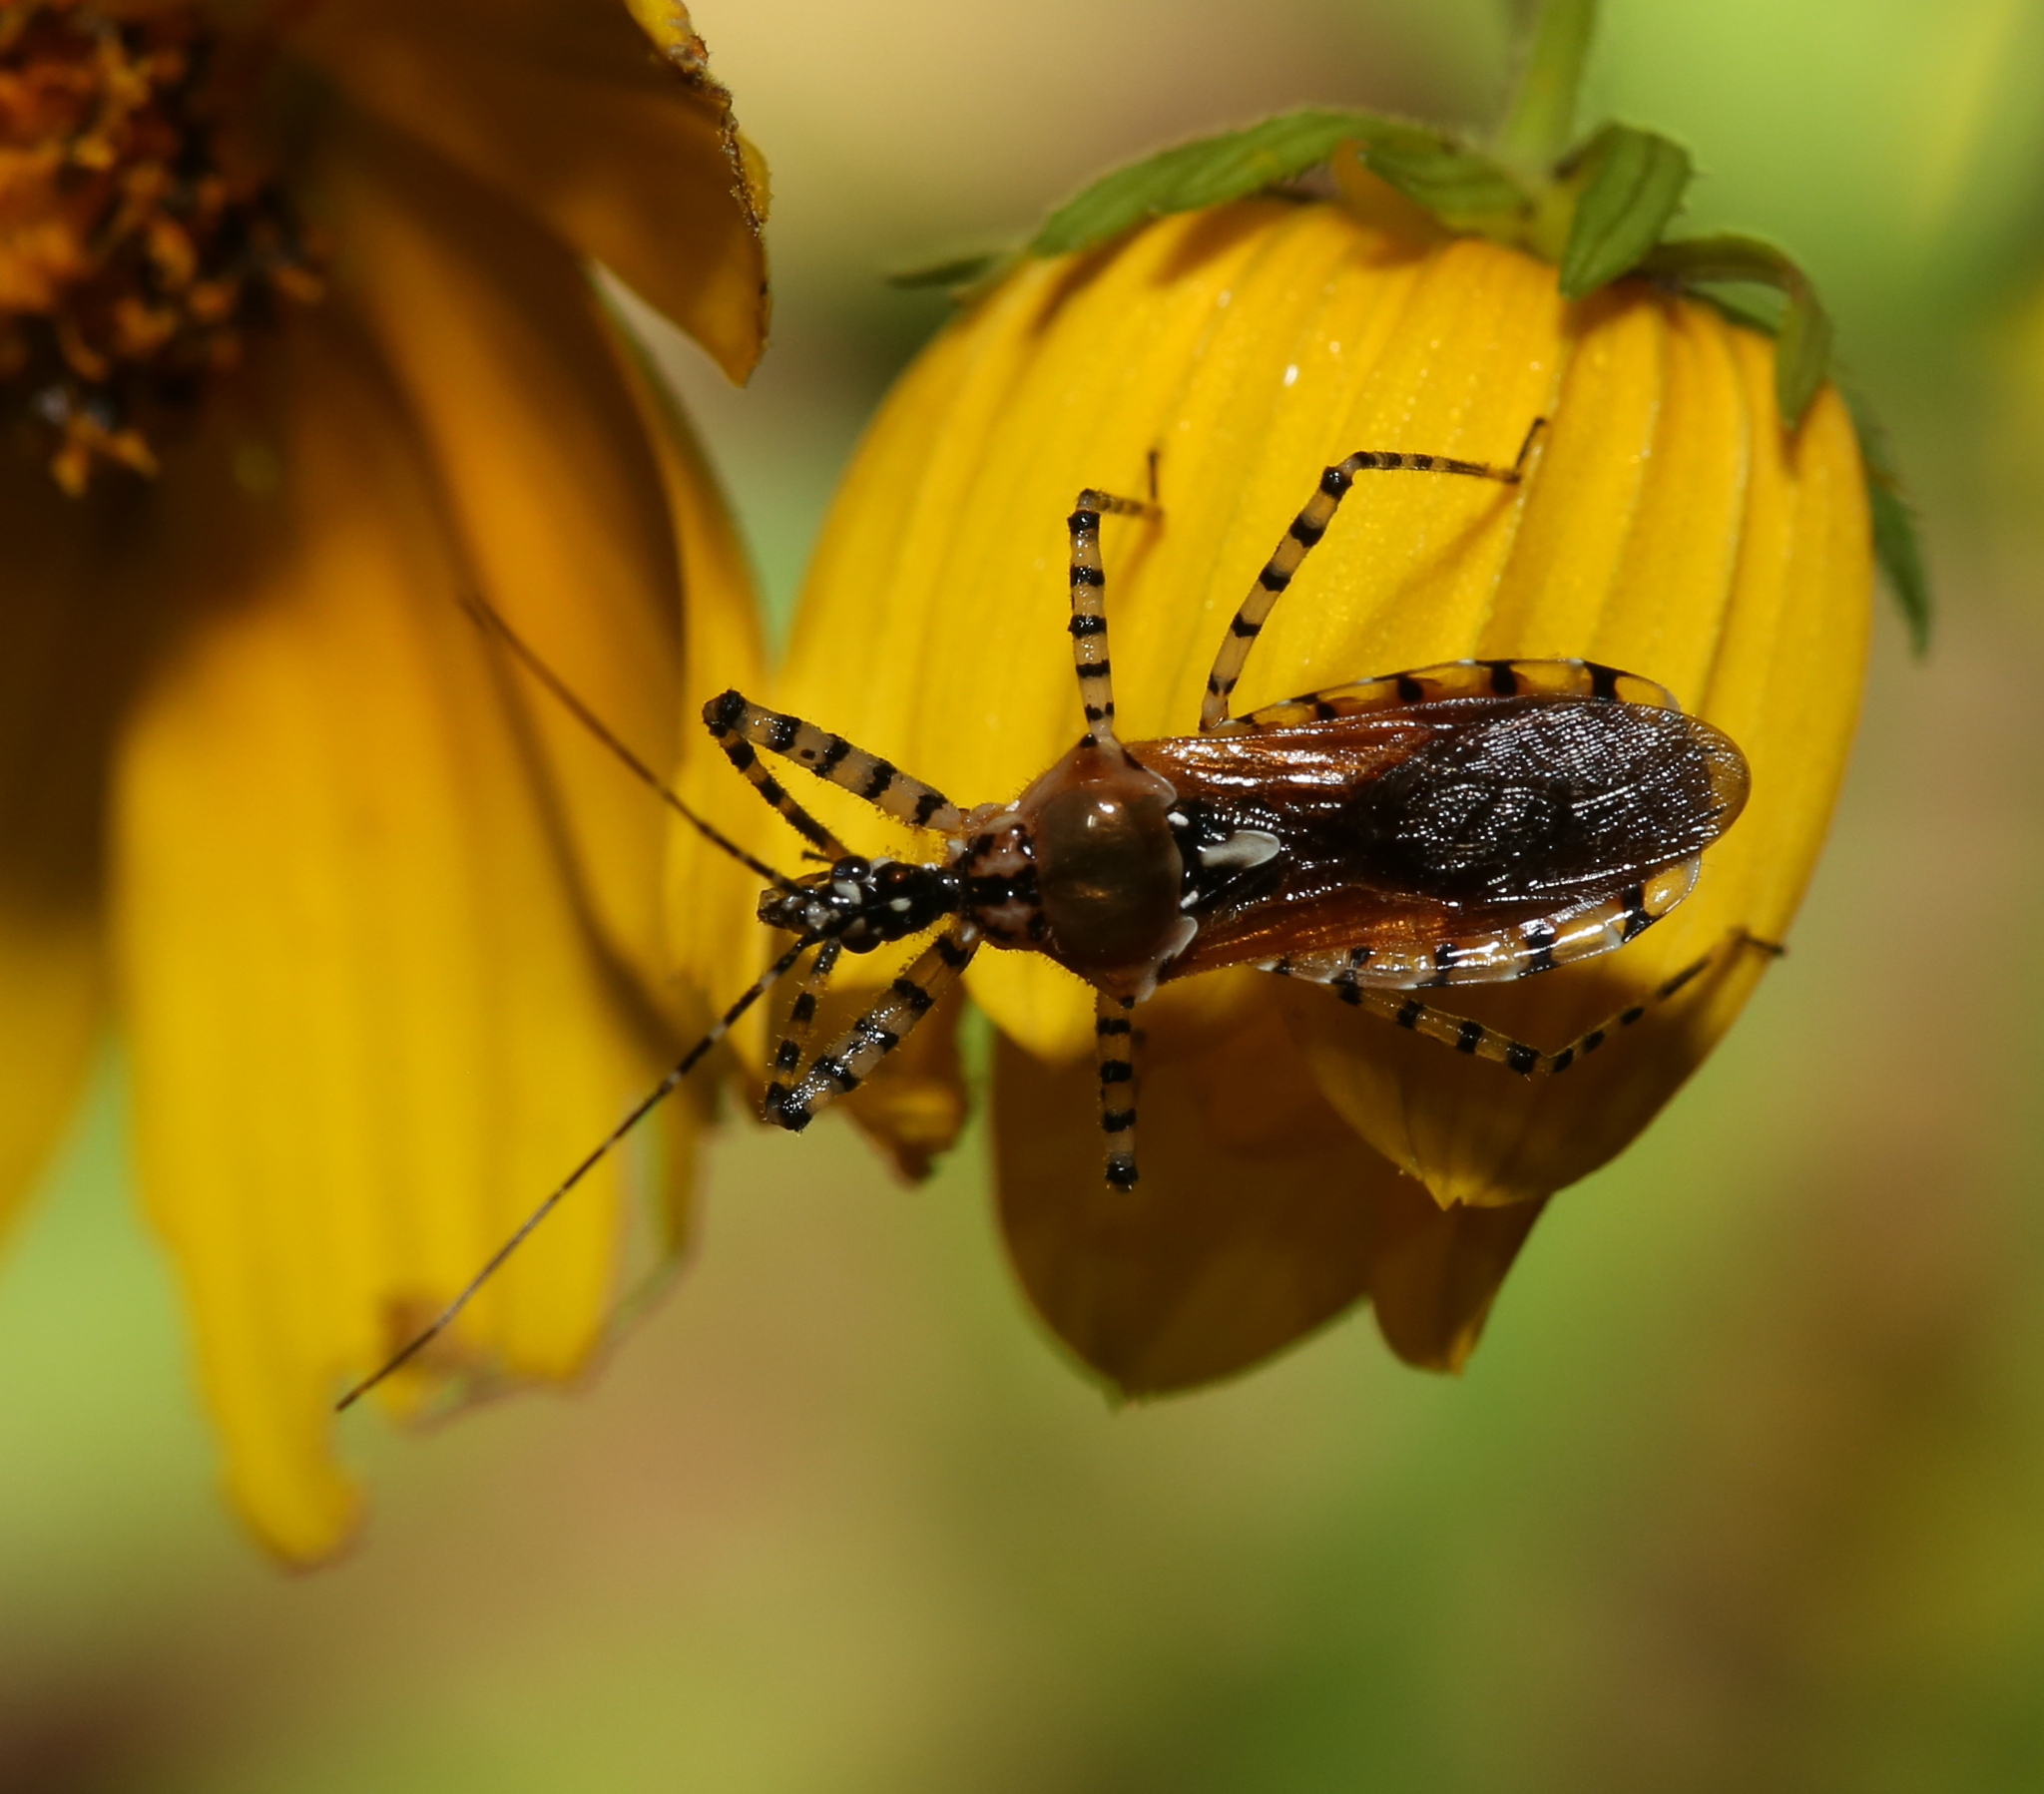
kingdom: Animalia
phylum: Arthropoda
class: Insecta
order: Hemiptera
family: Reduviidae
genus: Pselliopus
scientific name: Pselliopus cinctus
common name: Ringed assassin bug
